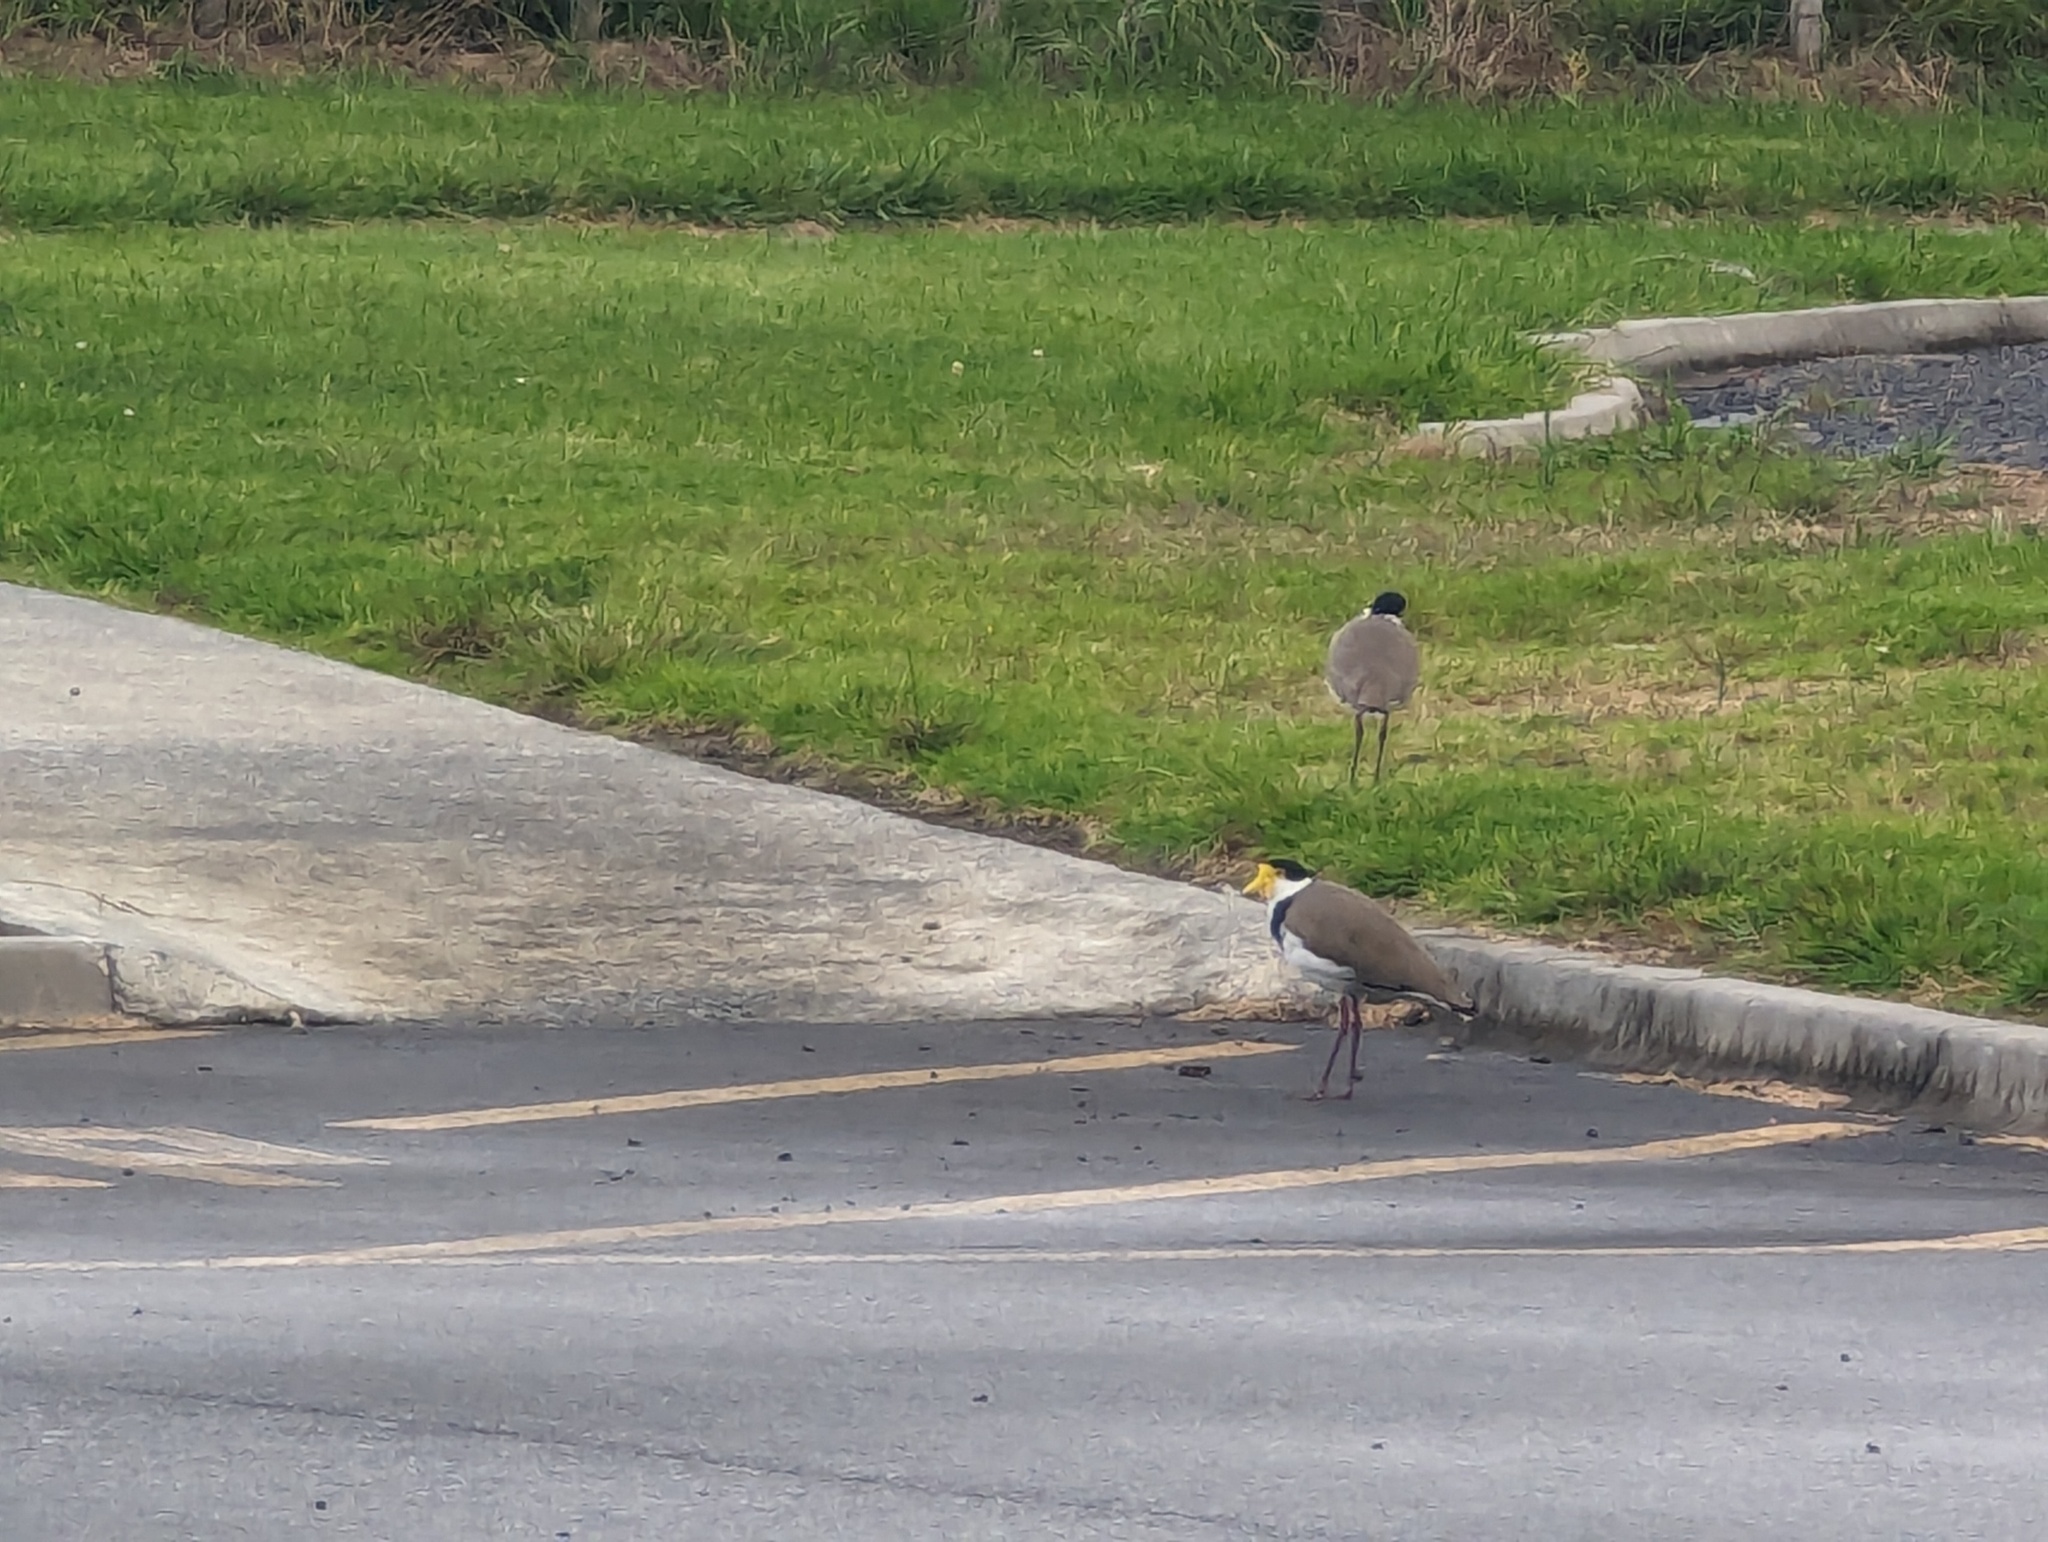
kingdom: Animalia
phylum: Chordata
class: Aves
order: Charadriiformes
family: Charadriidae
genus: Vanellus
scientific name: Vanellus miles
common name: Masked lapwing
